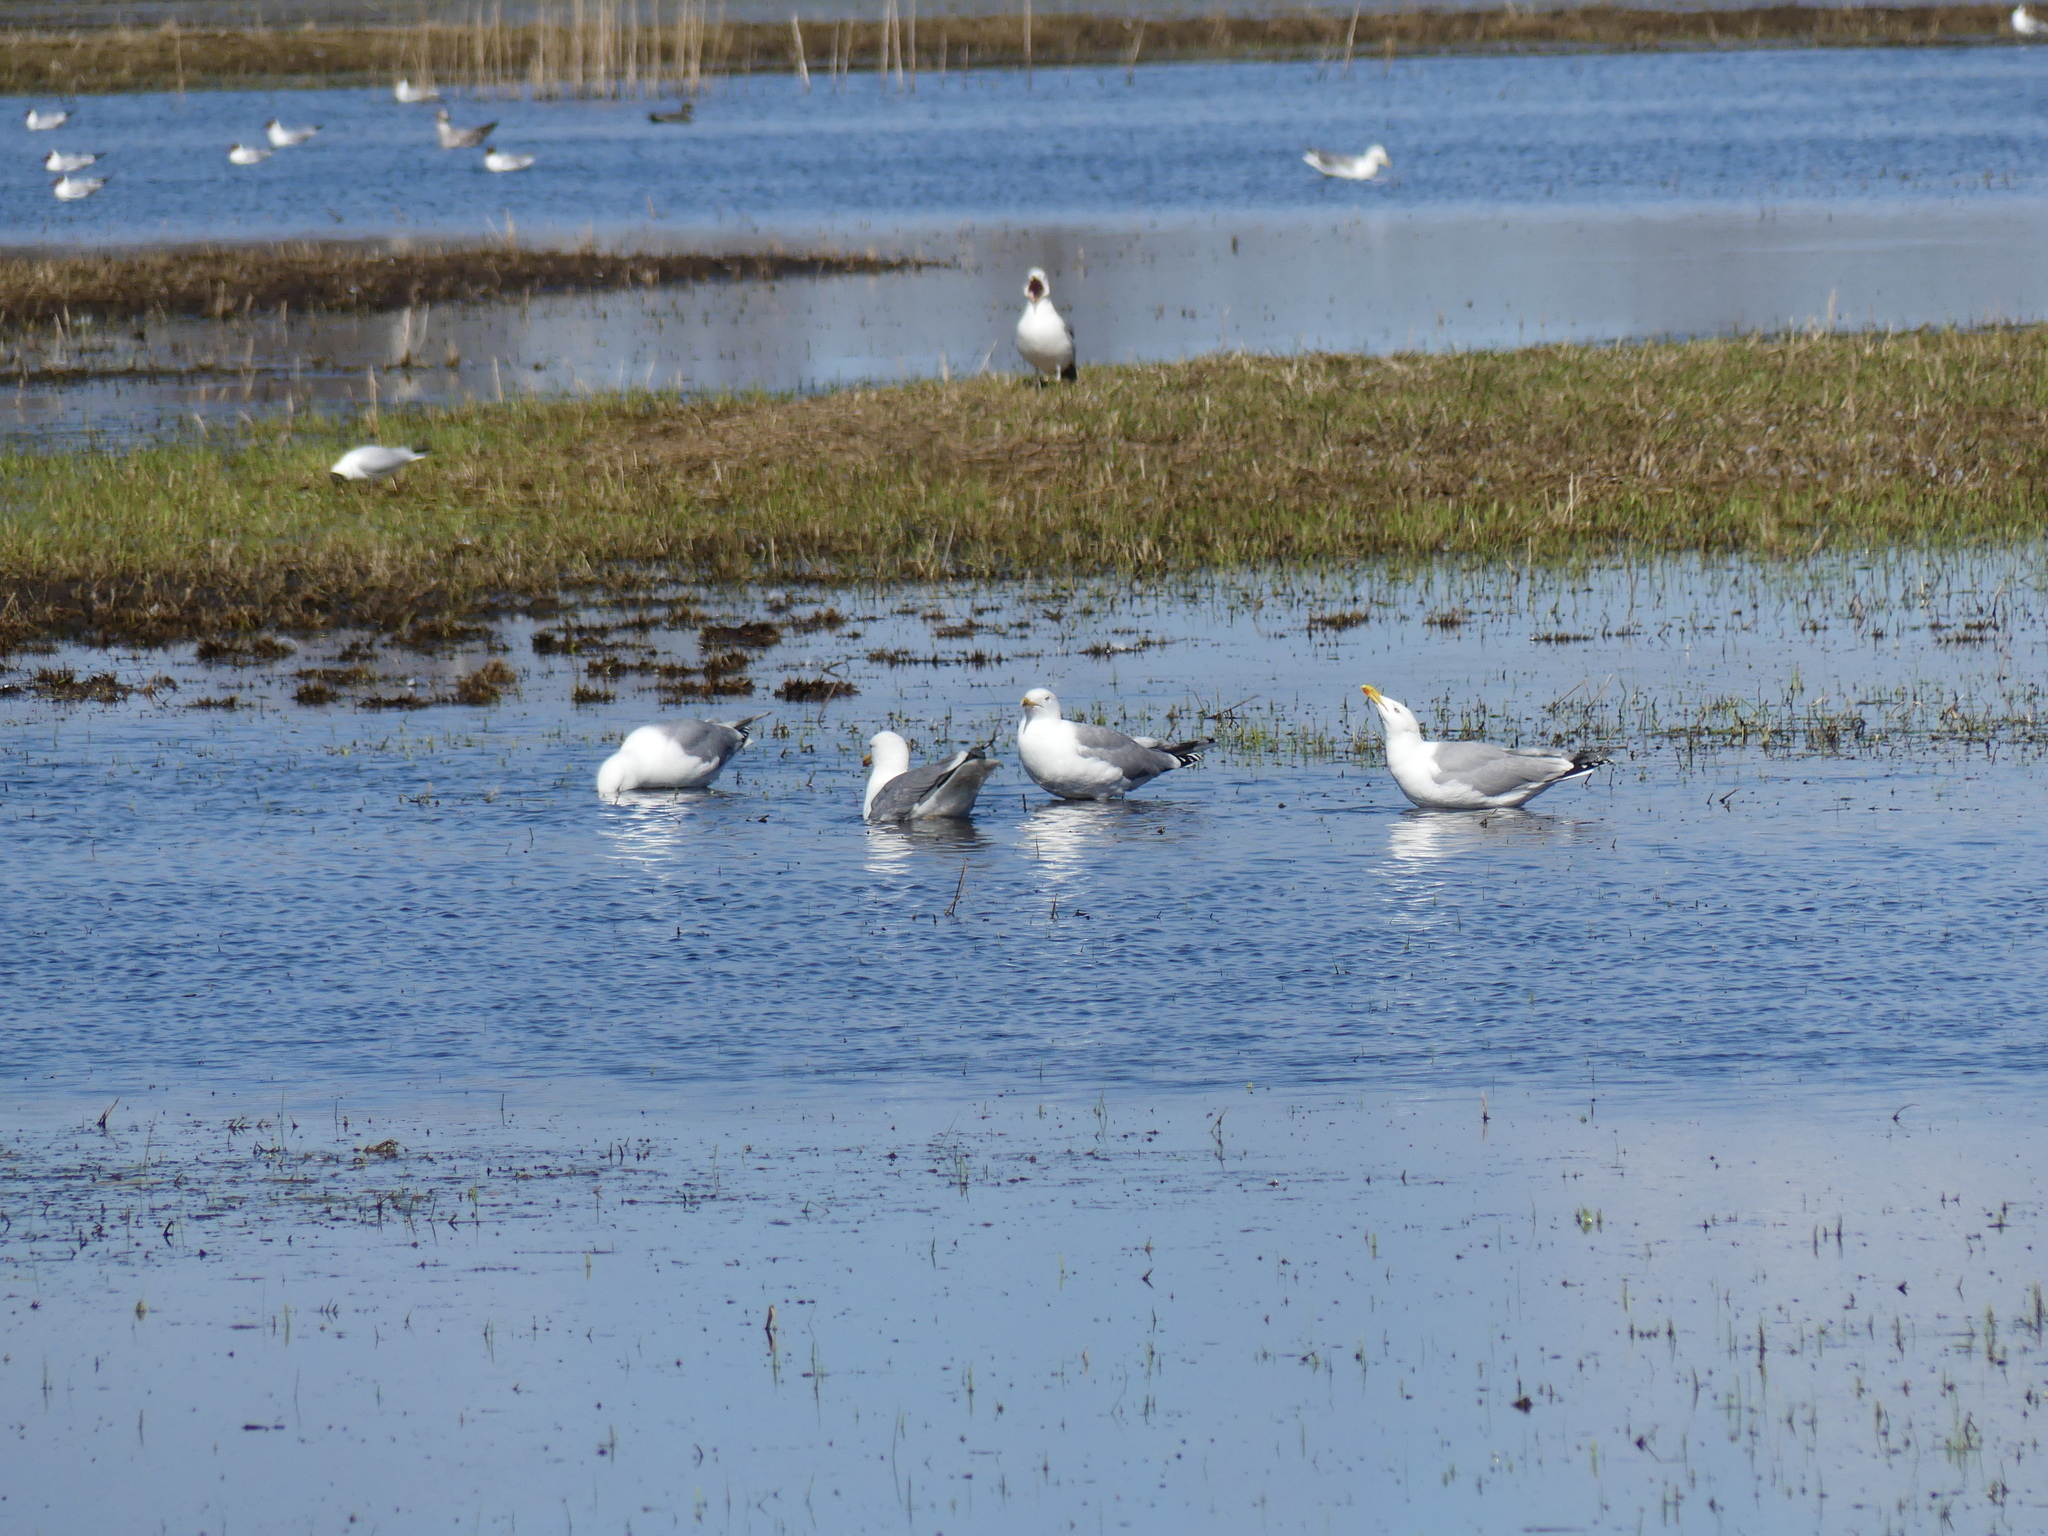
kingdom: Animalia
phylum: Chordata
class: Aves
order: Charadriiformes
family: Laridae
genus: Larus
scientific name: Larus argentatus
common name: Herring gull
